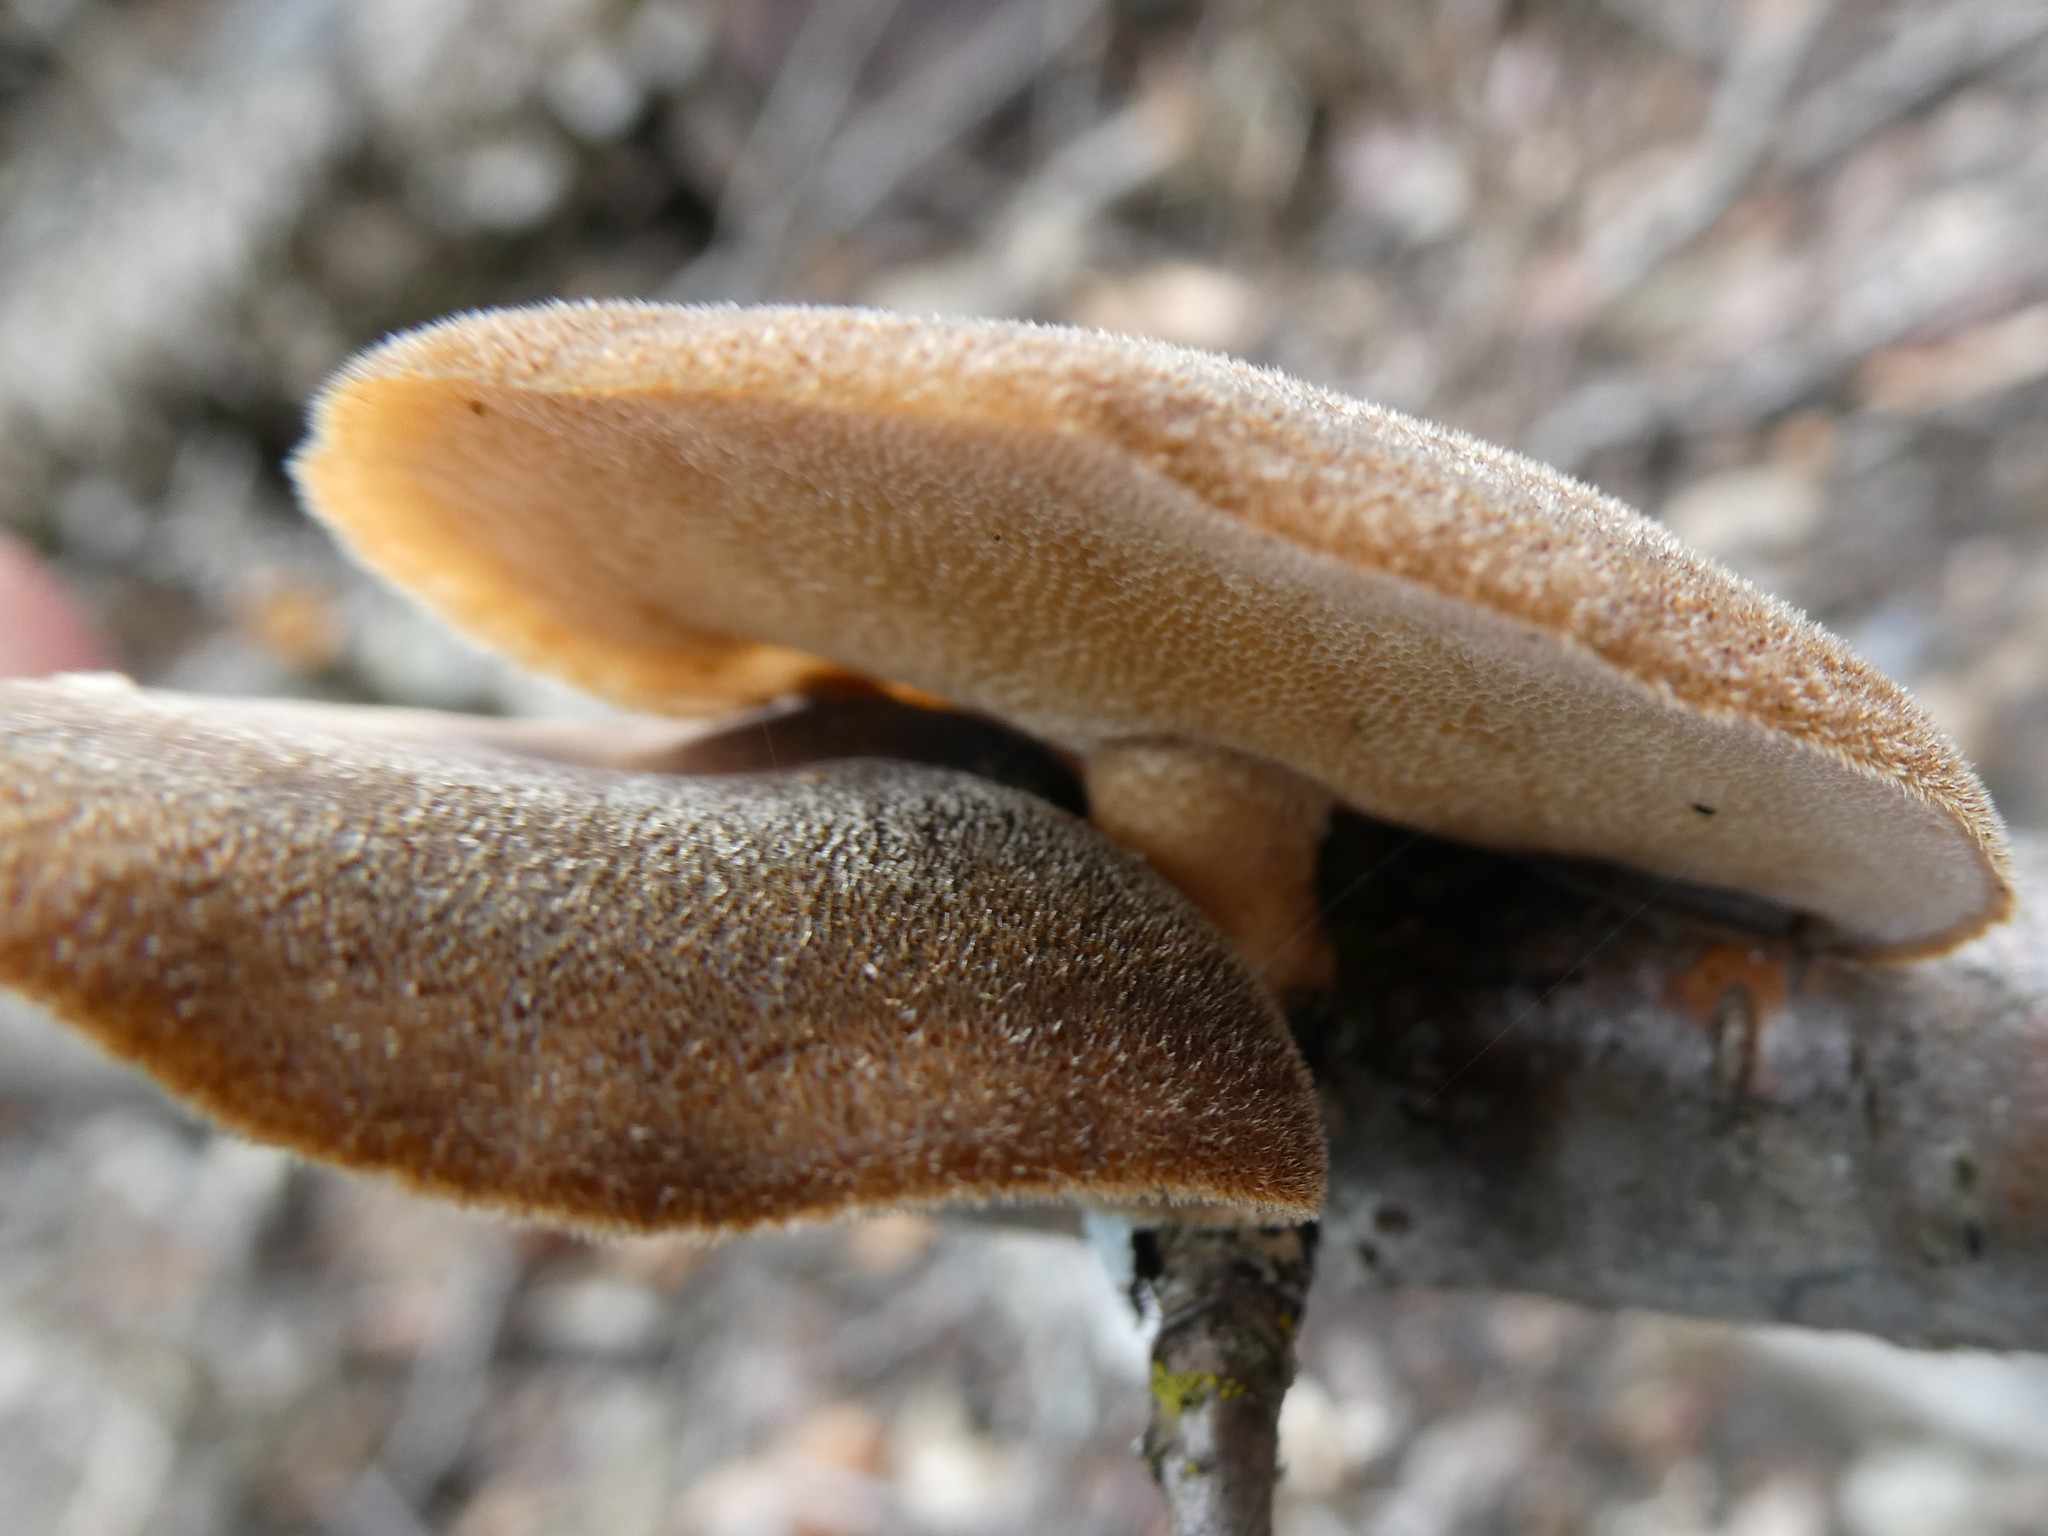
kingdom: Fungi
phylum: Basidiomycota
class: Agaricomycetes
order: Polyporales
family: Polyporaceae
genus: Lentinus
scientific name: Lentinus brumalis
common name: Winter polypore
